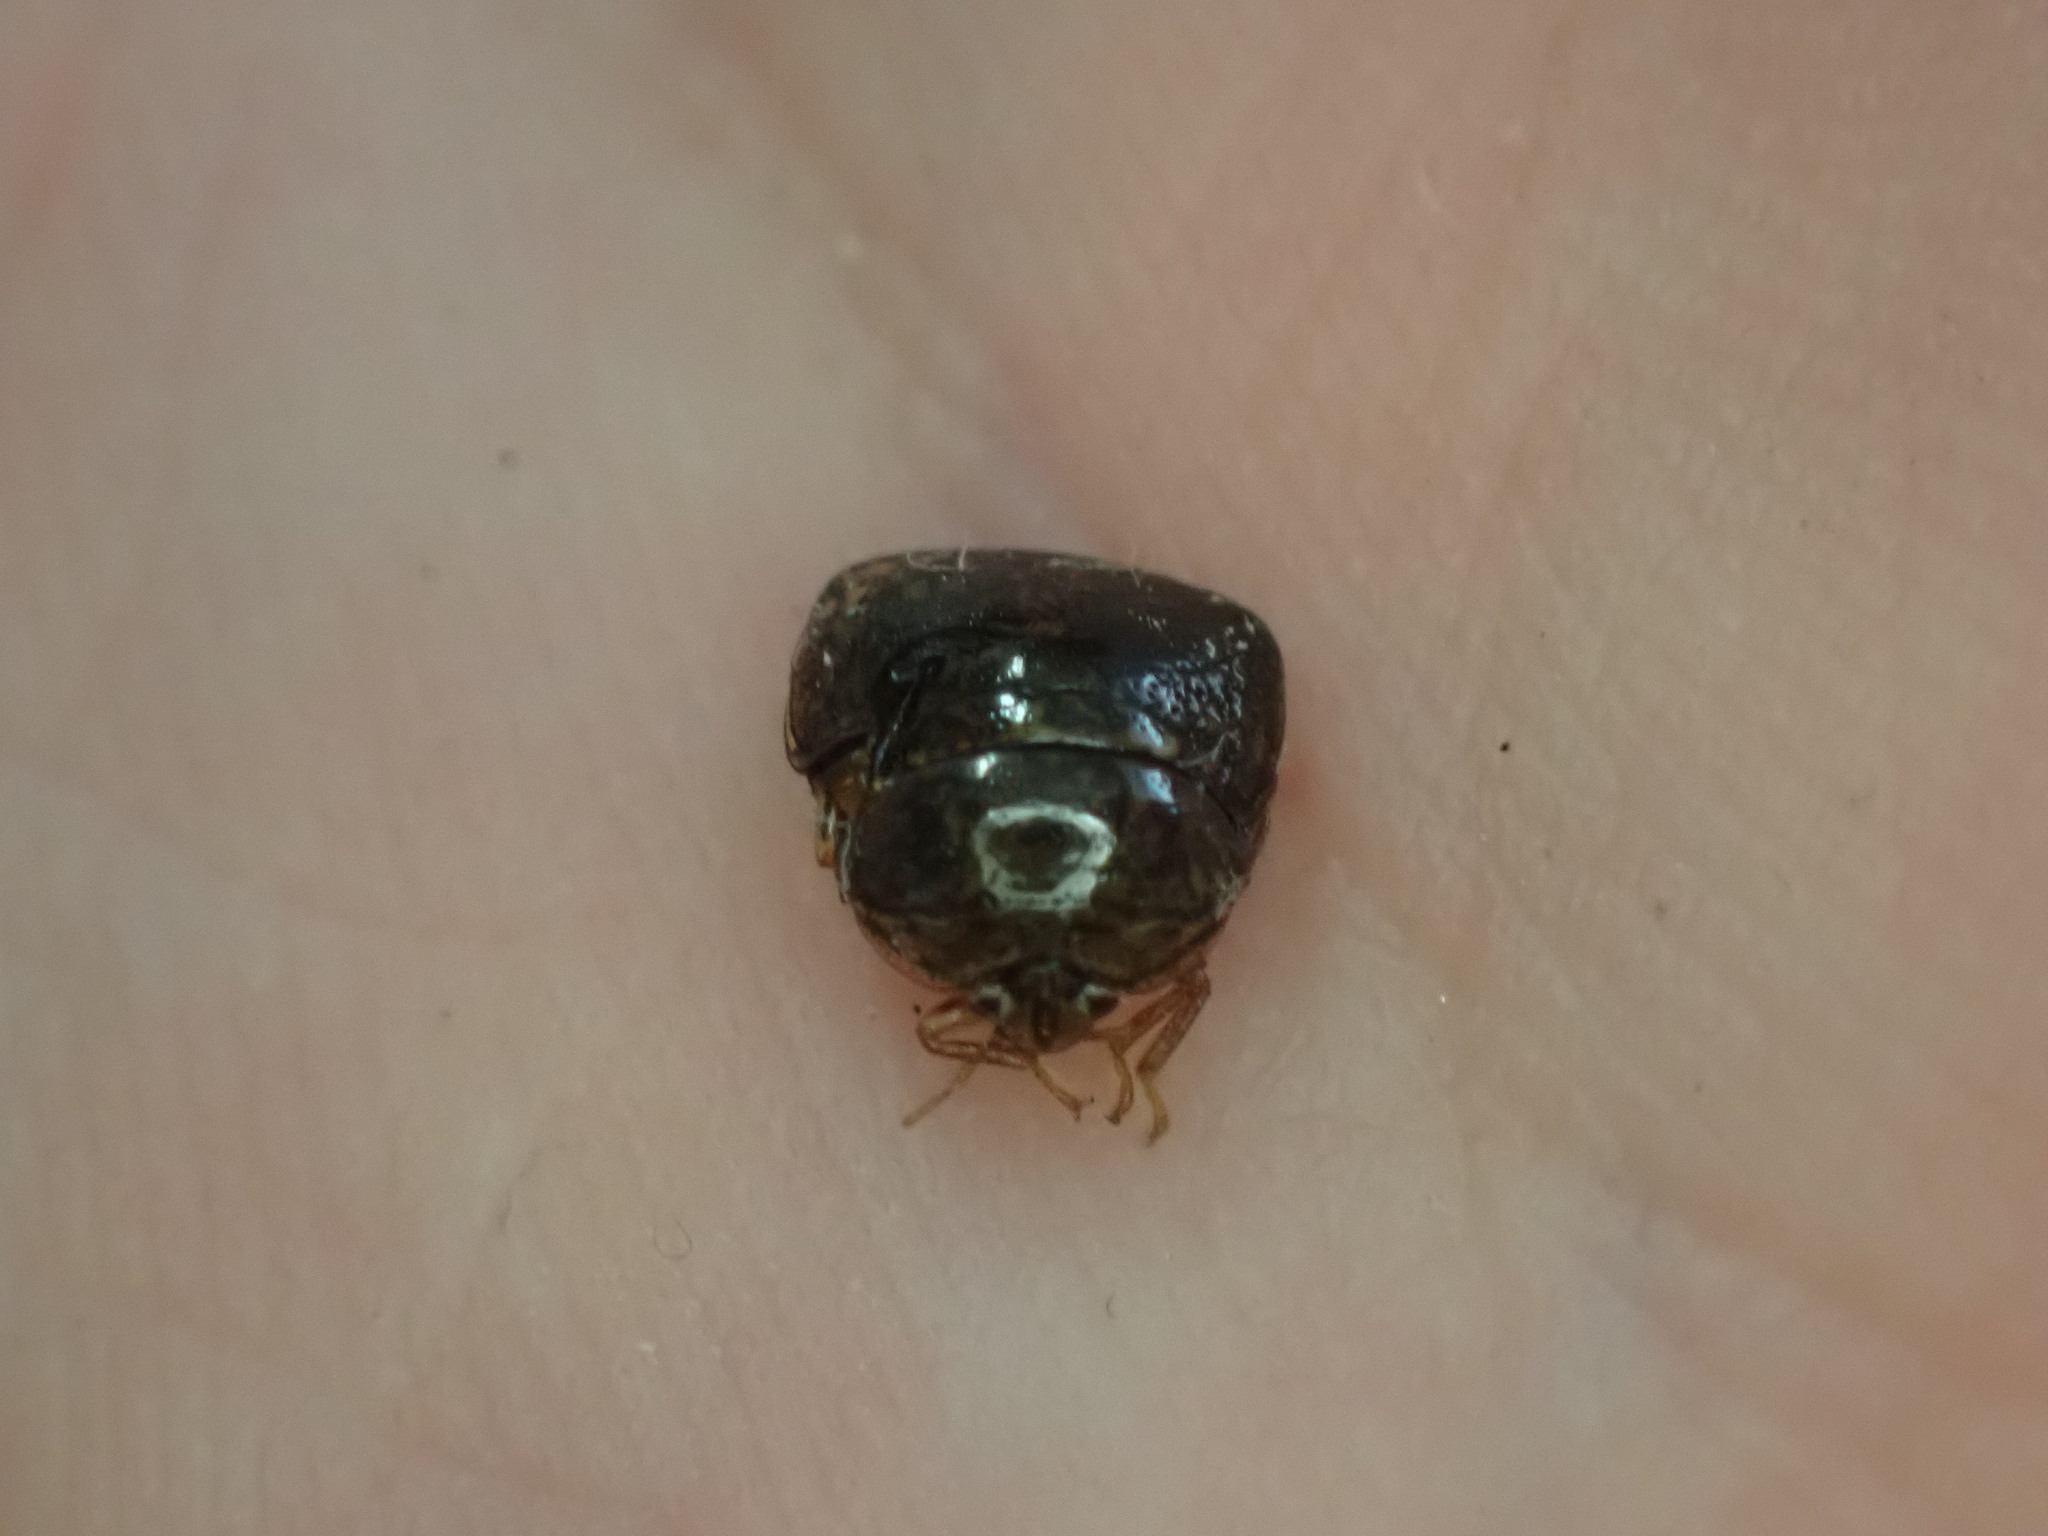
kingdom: Animalia
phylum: Arthropoda
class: Insecta
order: Hemiptera
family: Plataspidae
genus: Megacopta
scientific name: Megacopta cribraria
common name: Bean plataspid
